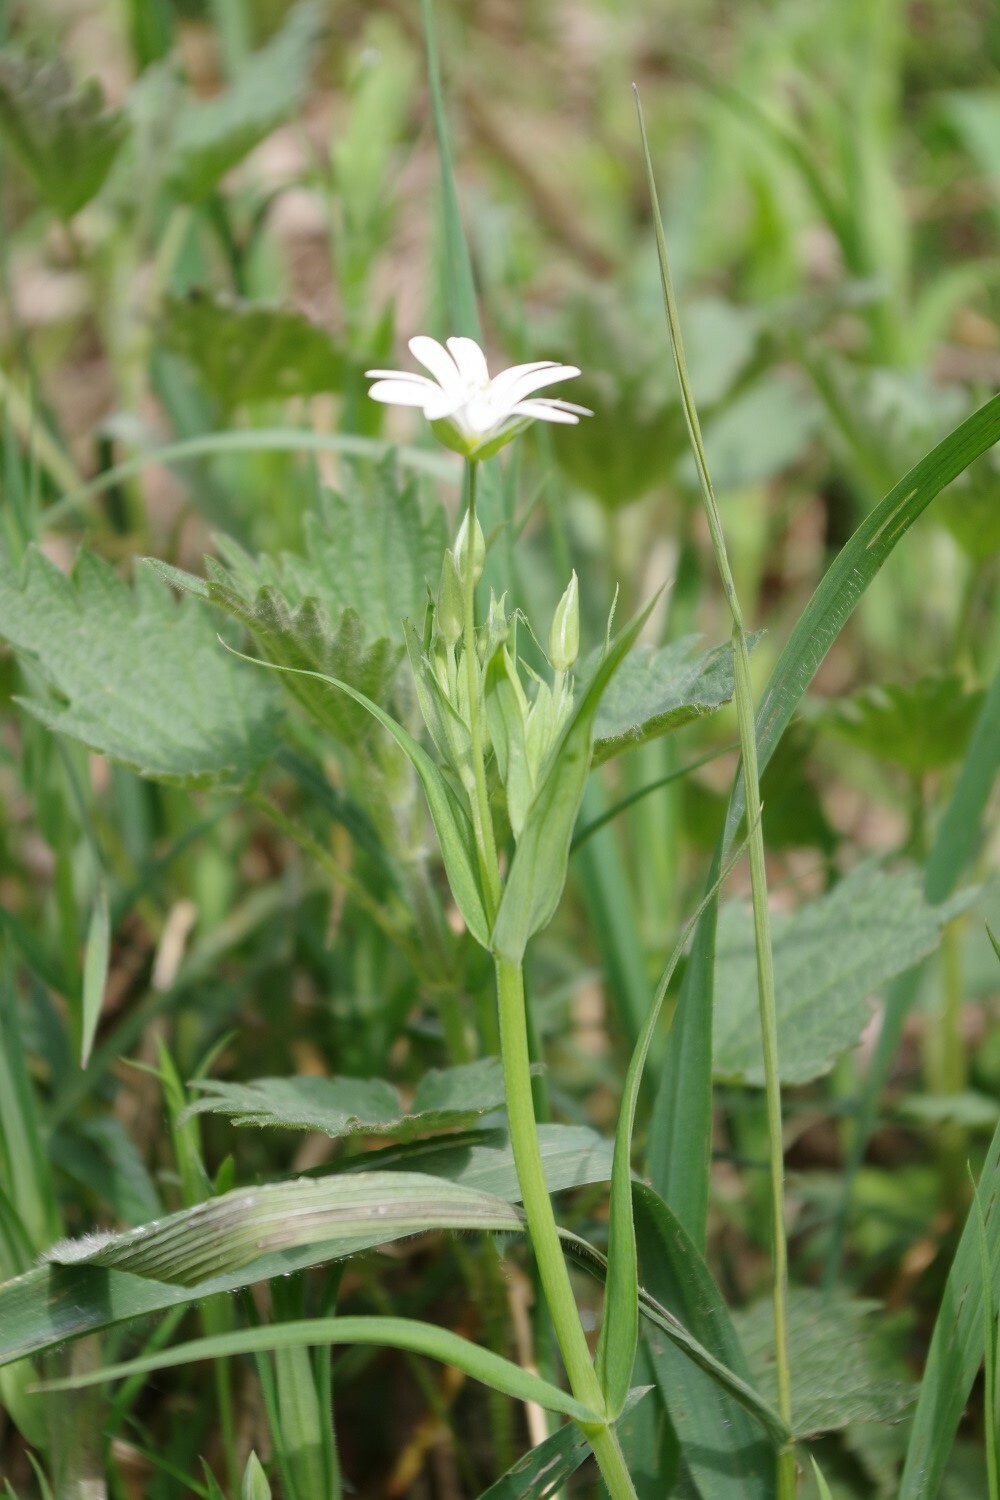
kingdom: Plantae
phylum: Tracheophyta
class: Magnoliopsida
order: Caryophyllales
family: Caryophyllaceae
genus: Rabelera
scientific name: Rabelera holostea
